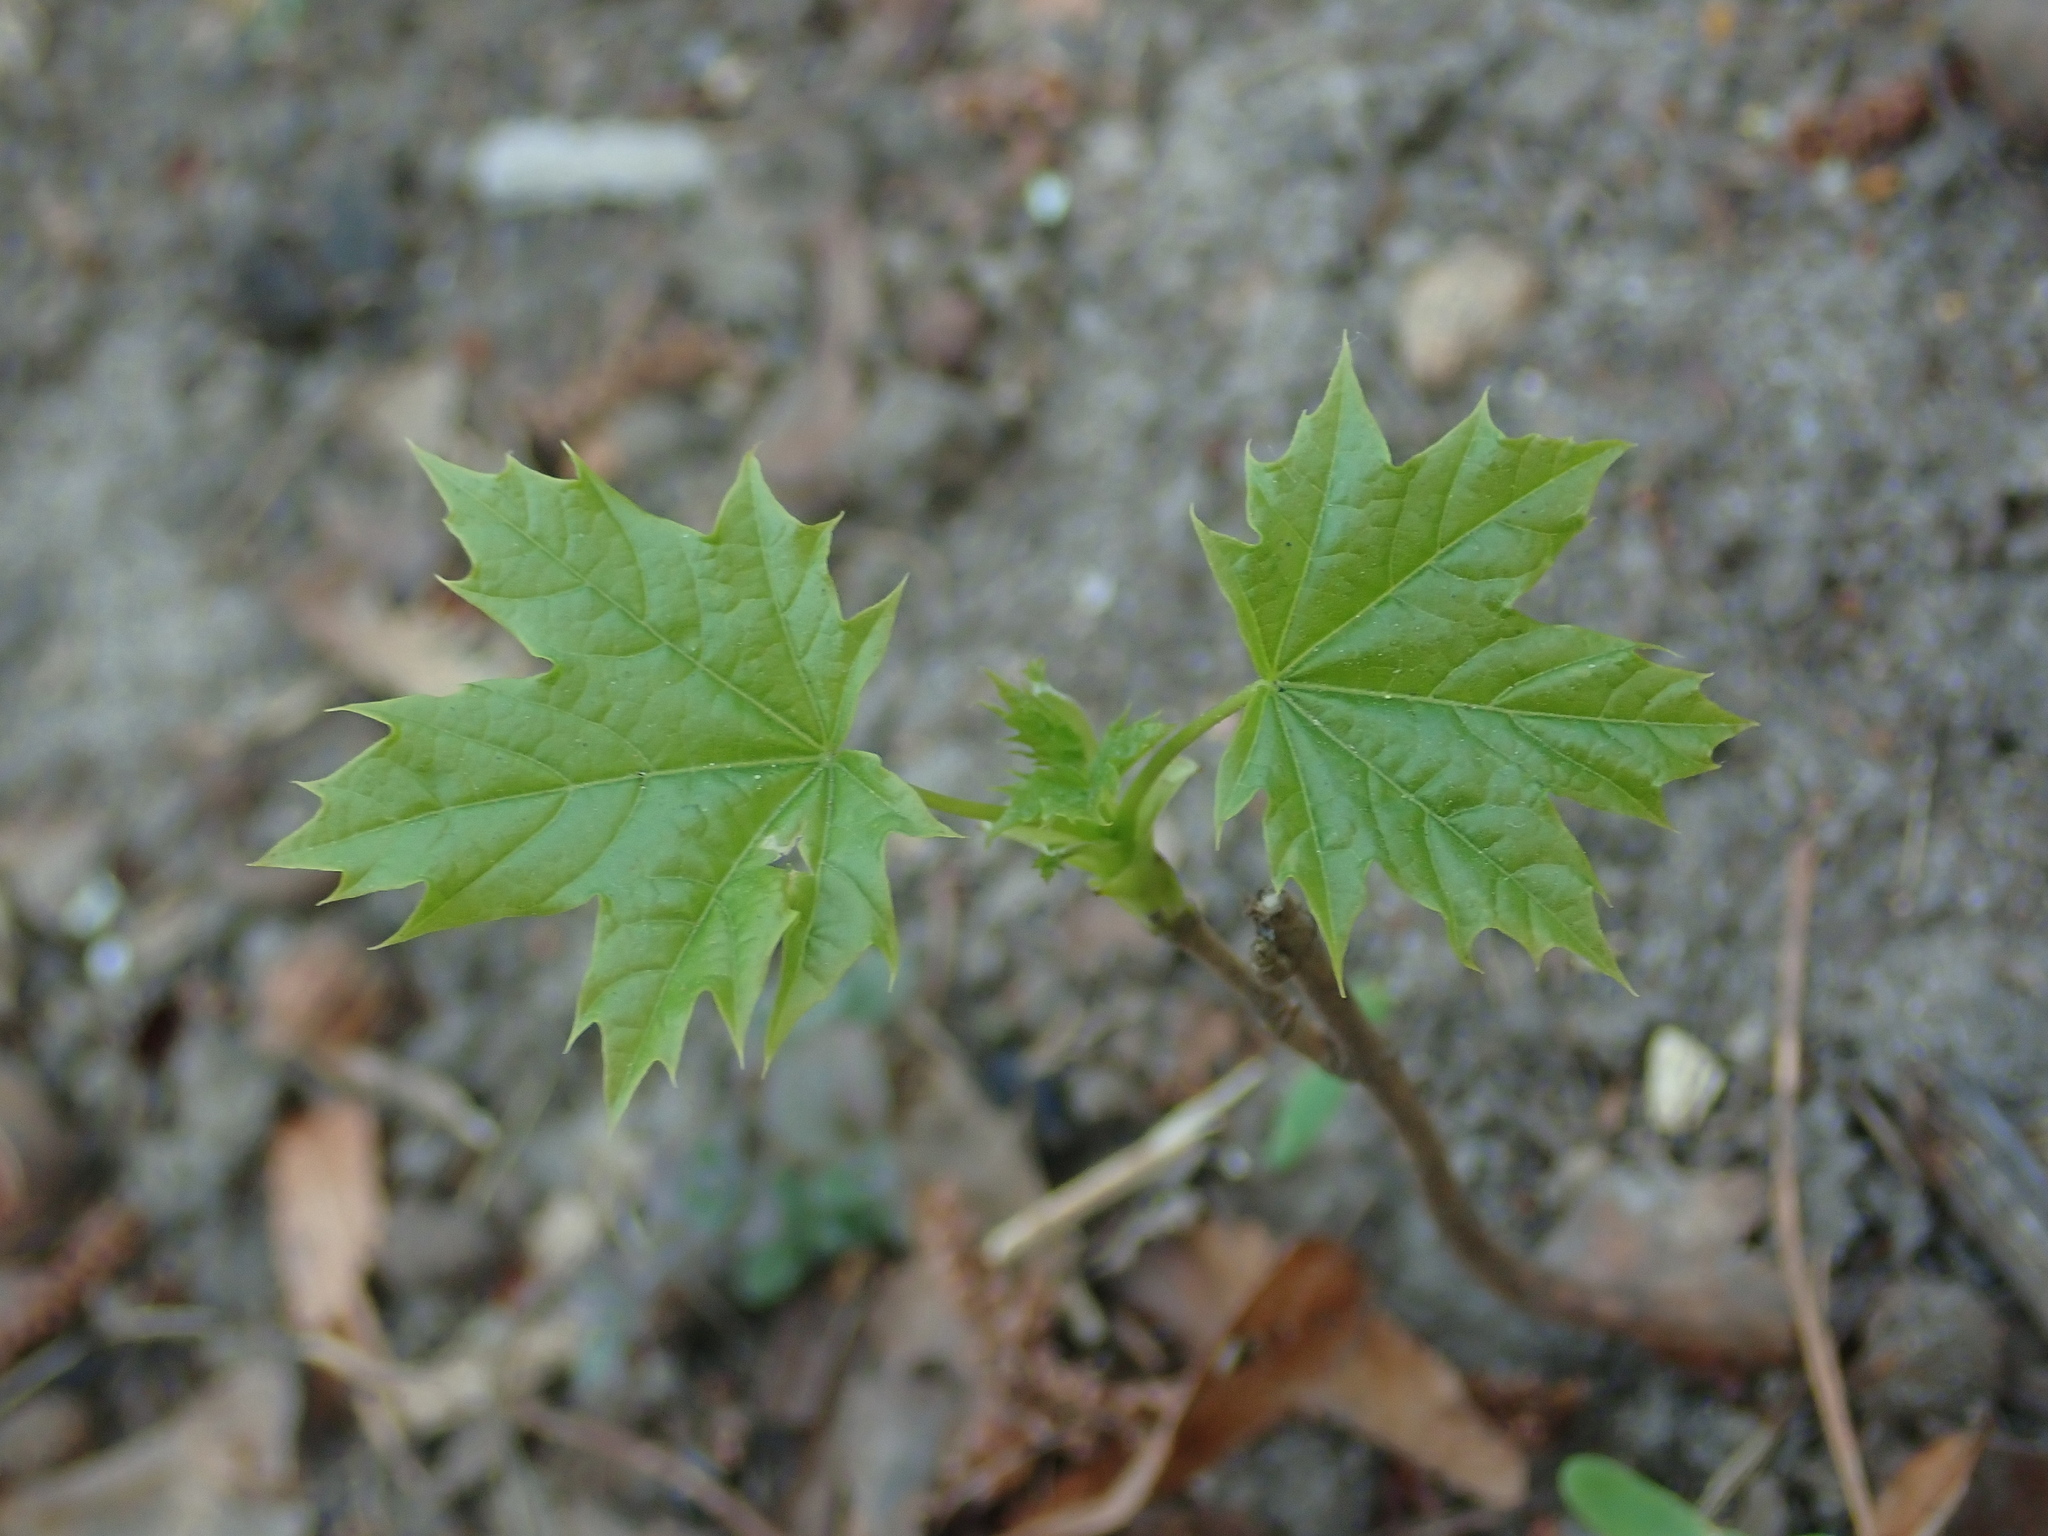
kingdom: Plantae
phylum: Tracheophyta
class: Magnoliopsida
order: Sapindales
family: Sapindaceae
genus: Acer
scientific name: Acer platanoides
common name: Norway maple
